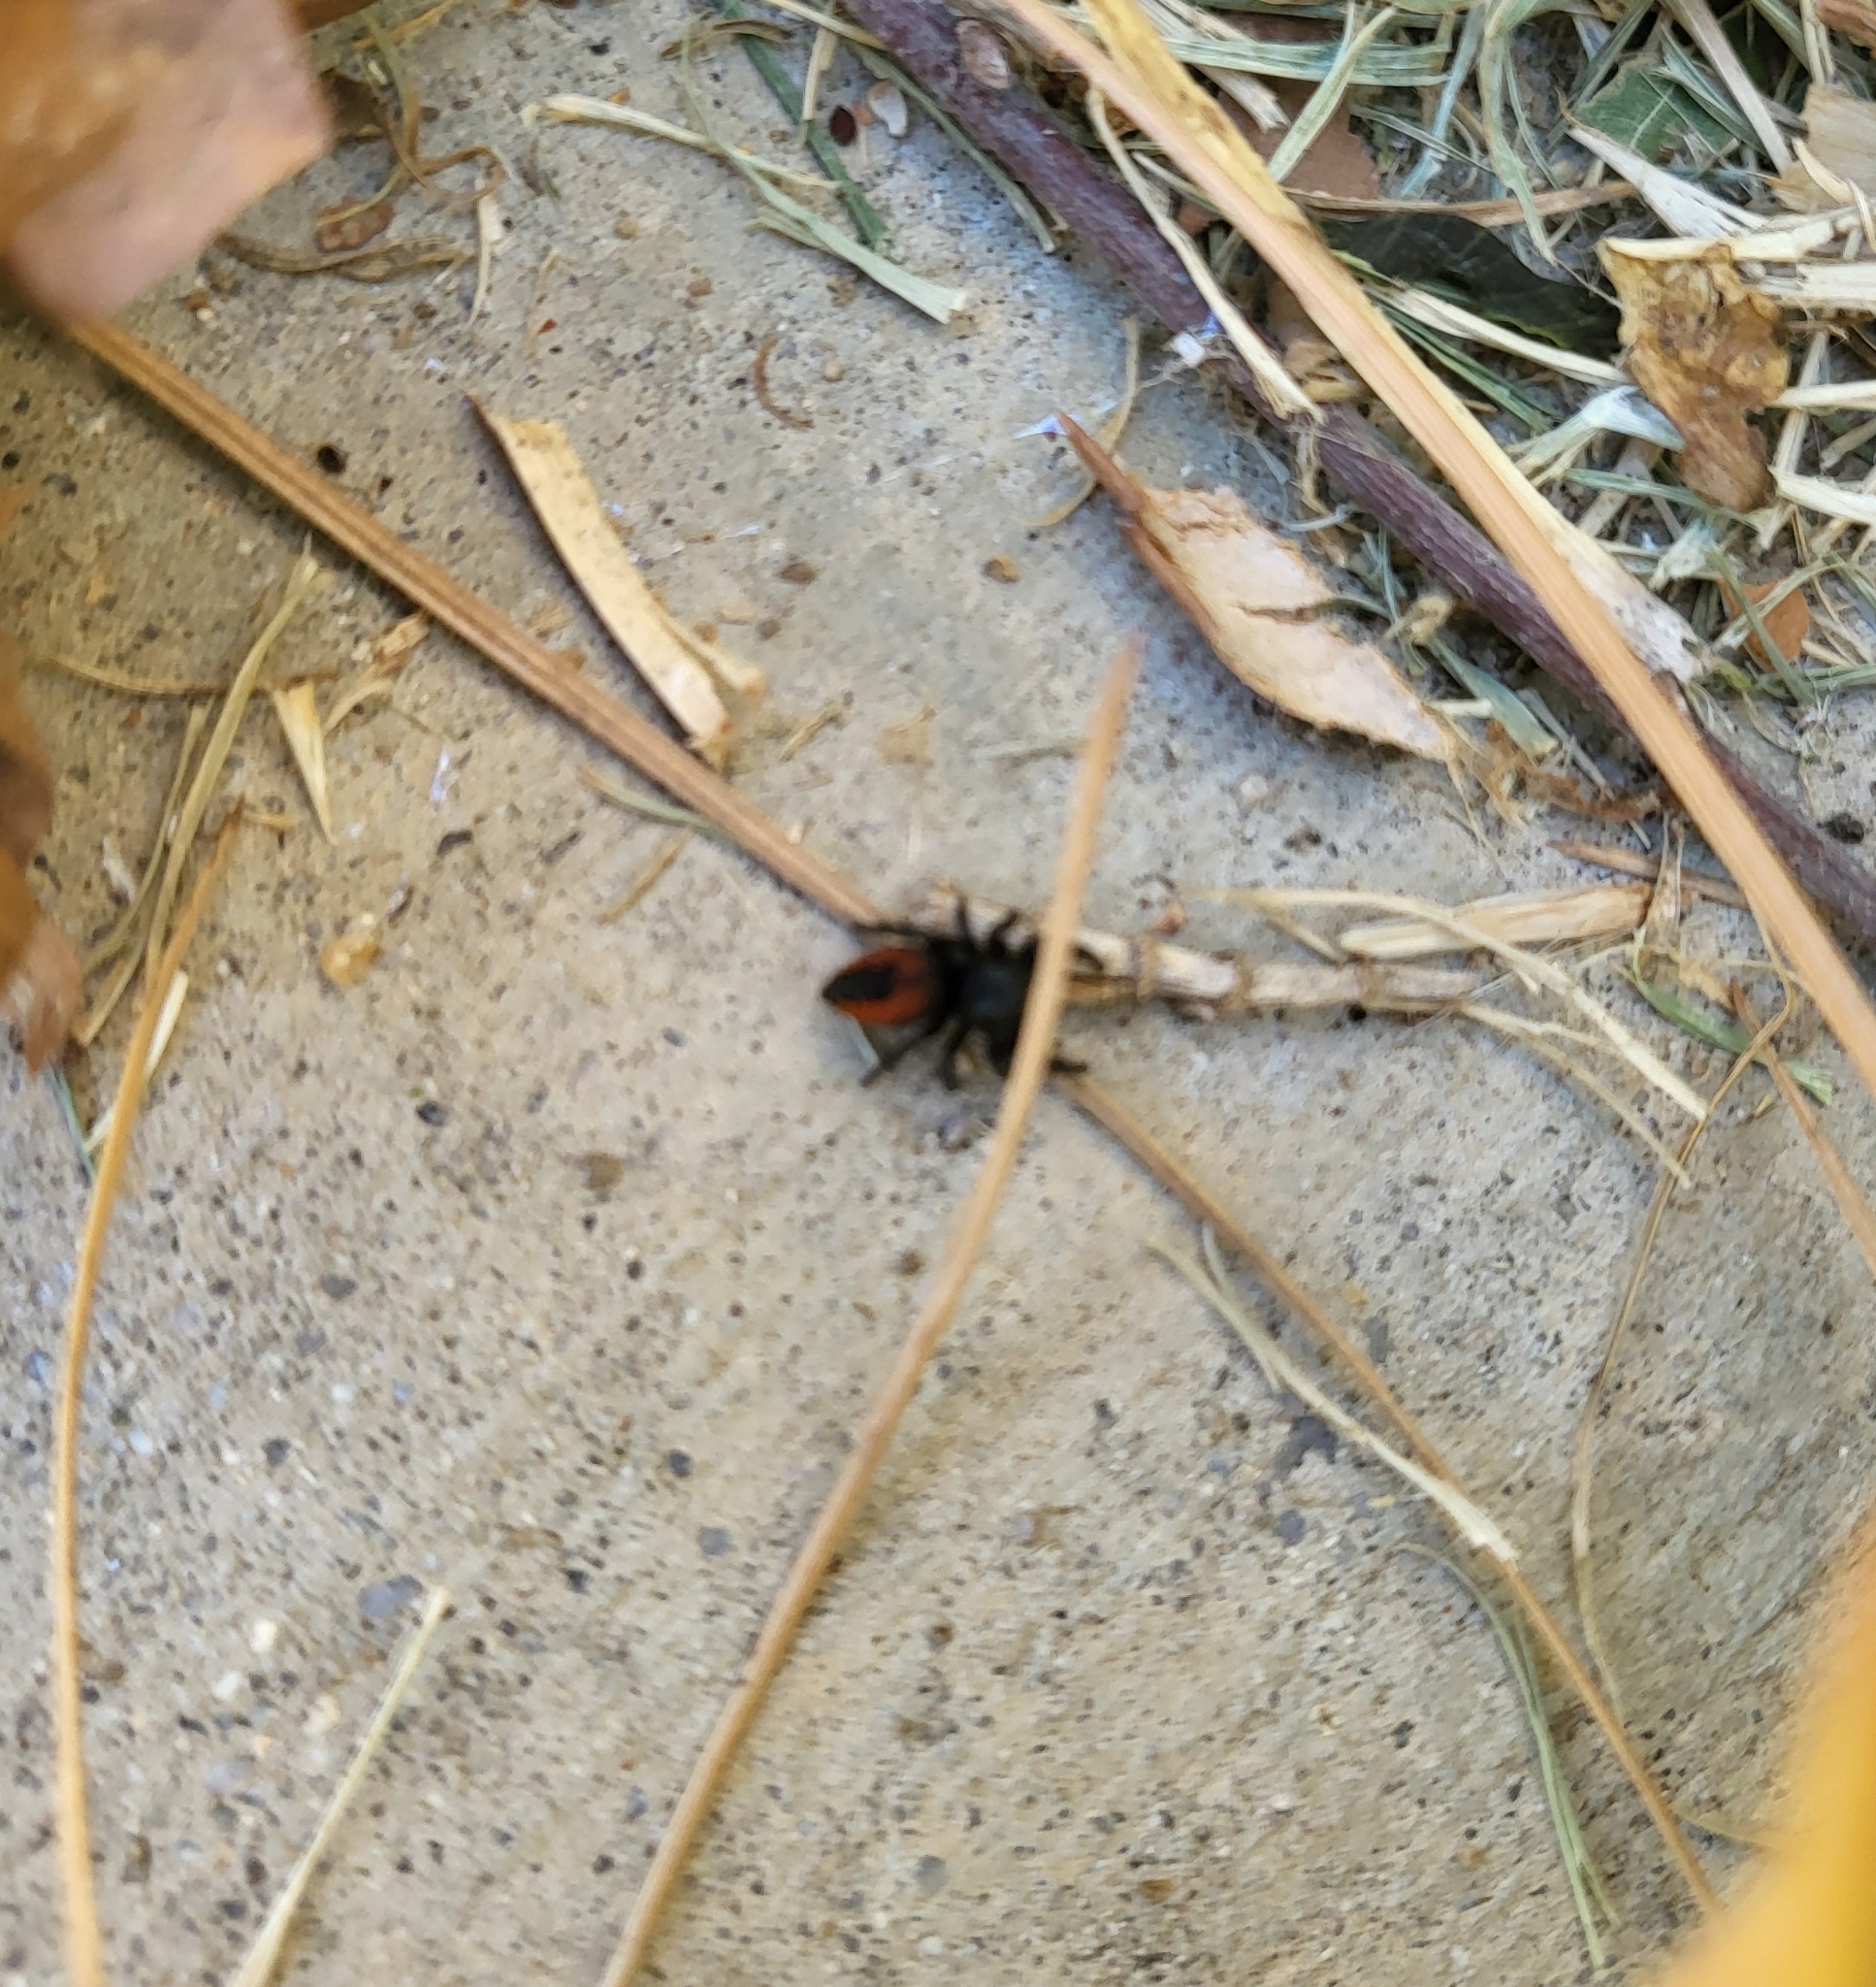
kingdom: Animalia
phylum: Arthropoda
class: Arachnida
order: Araneae
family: Salticidae
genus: Phidippus
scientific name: Phidippus johnsoni
